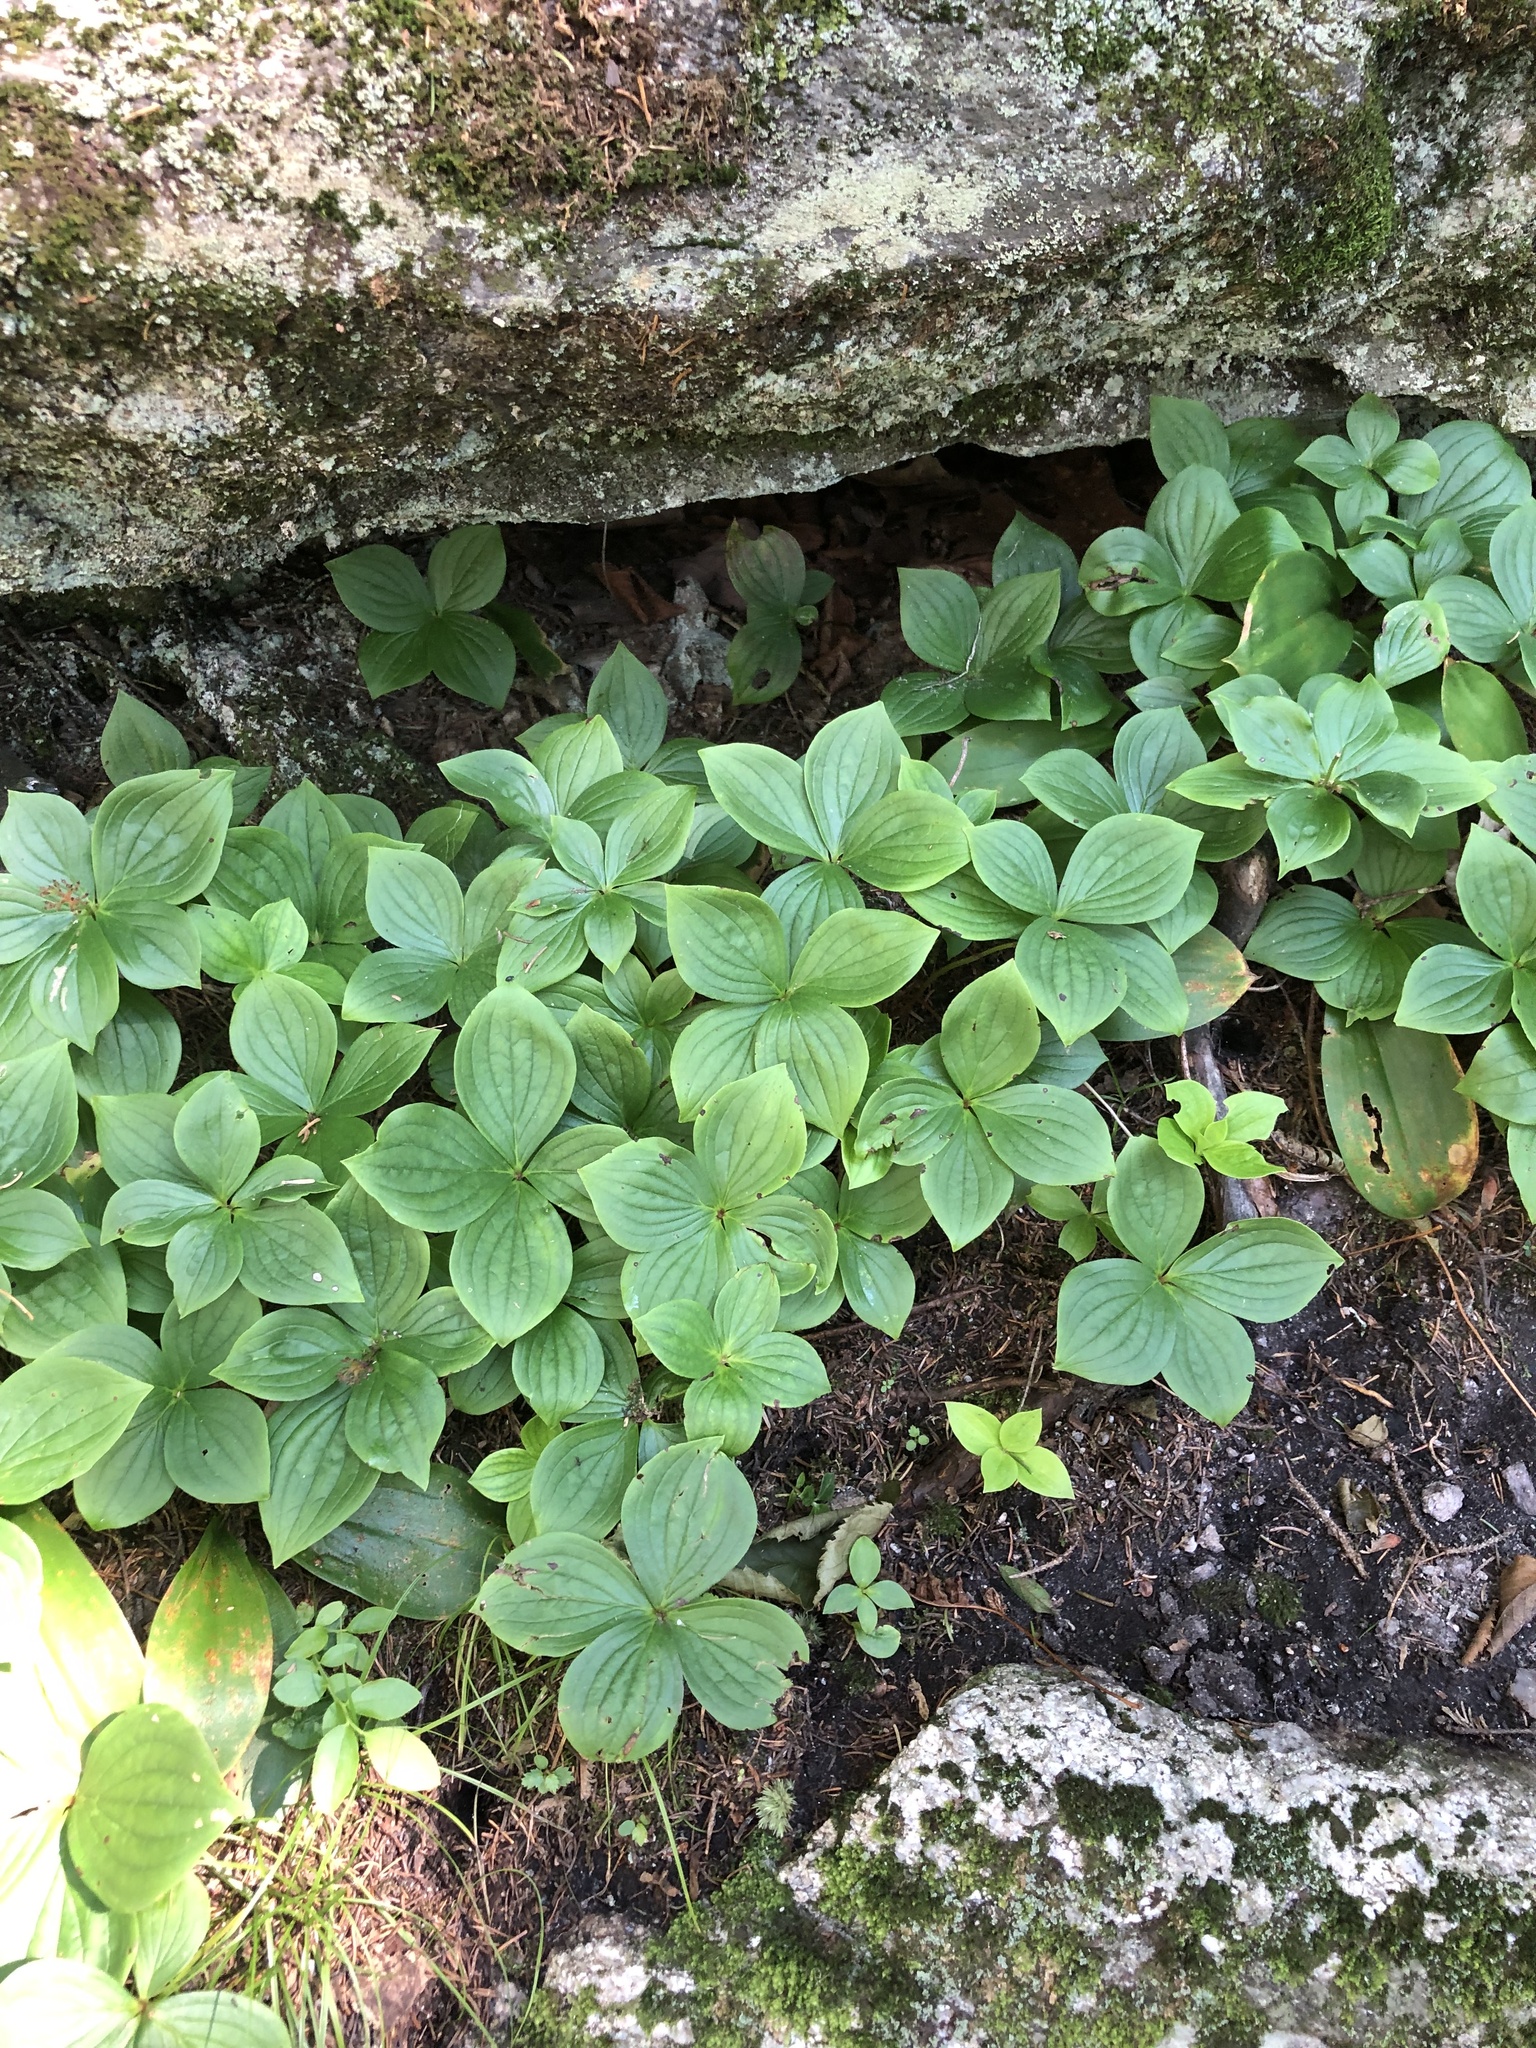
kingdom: Plantae
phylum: Tracheophyta
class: Magnoliopsida
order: Cornales
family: Cornaceae
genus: Cornus
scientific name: Cornus canadensis
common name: Creeping dogwood
